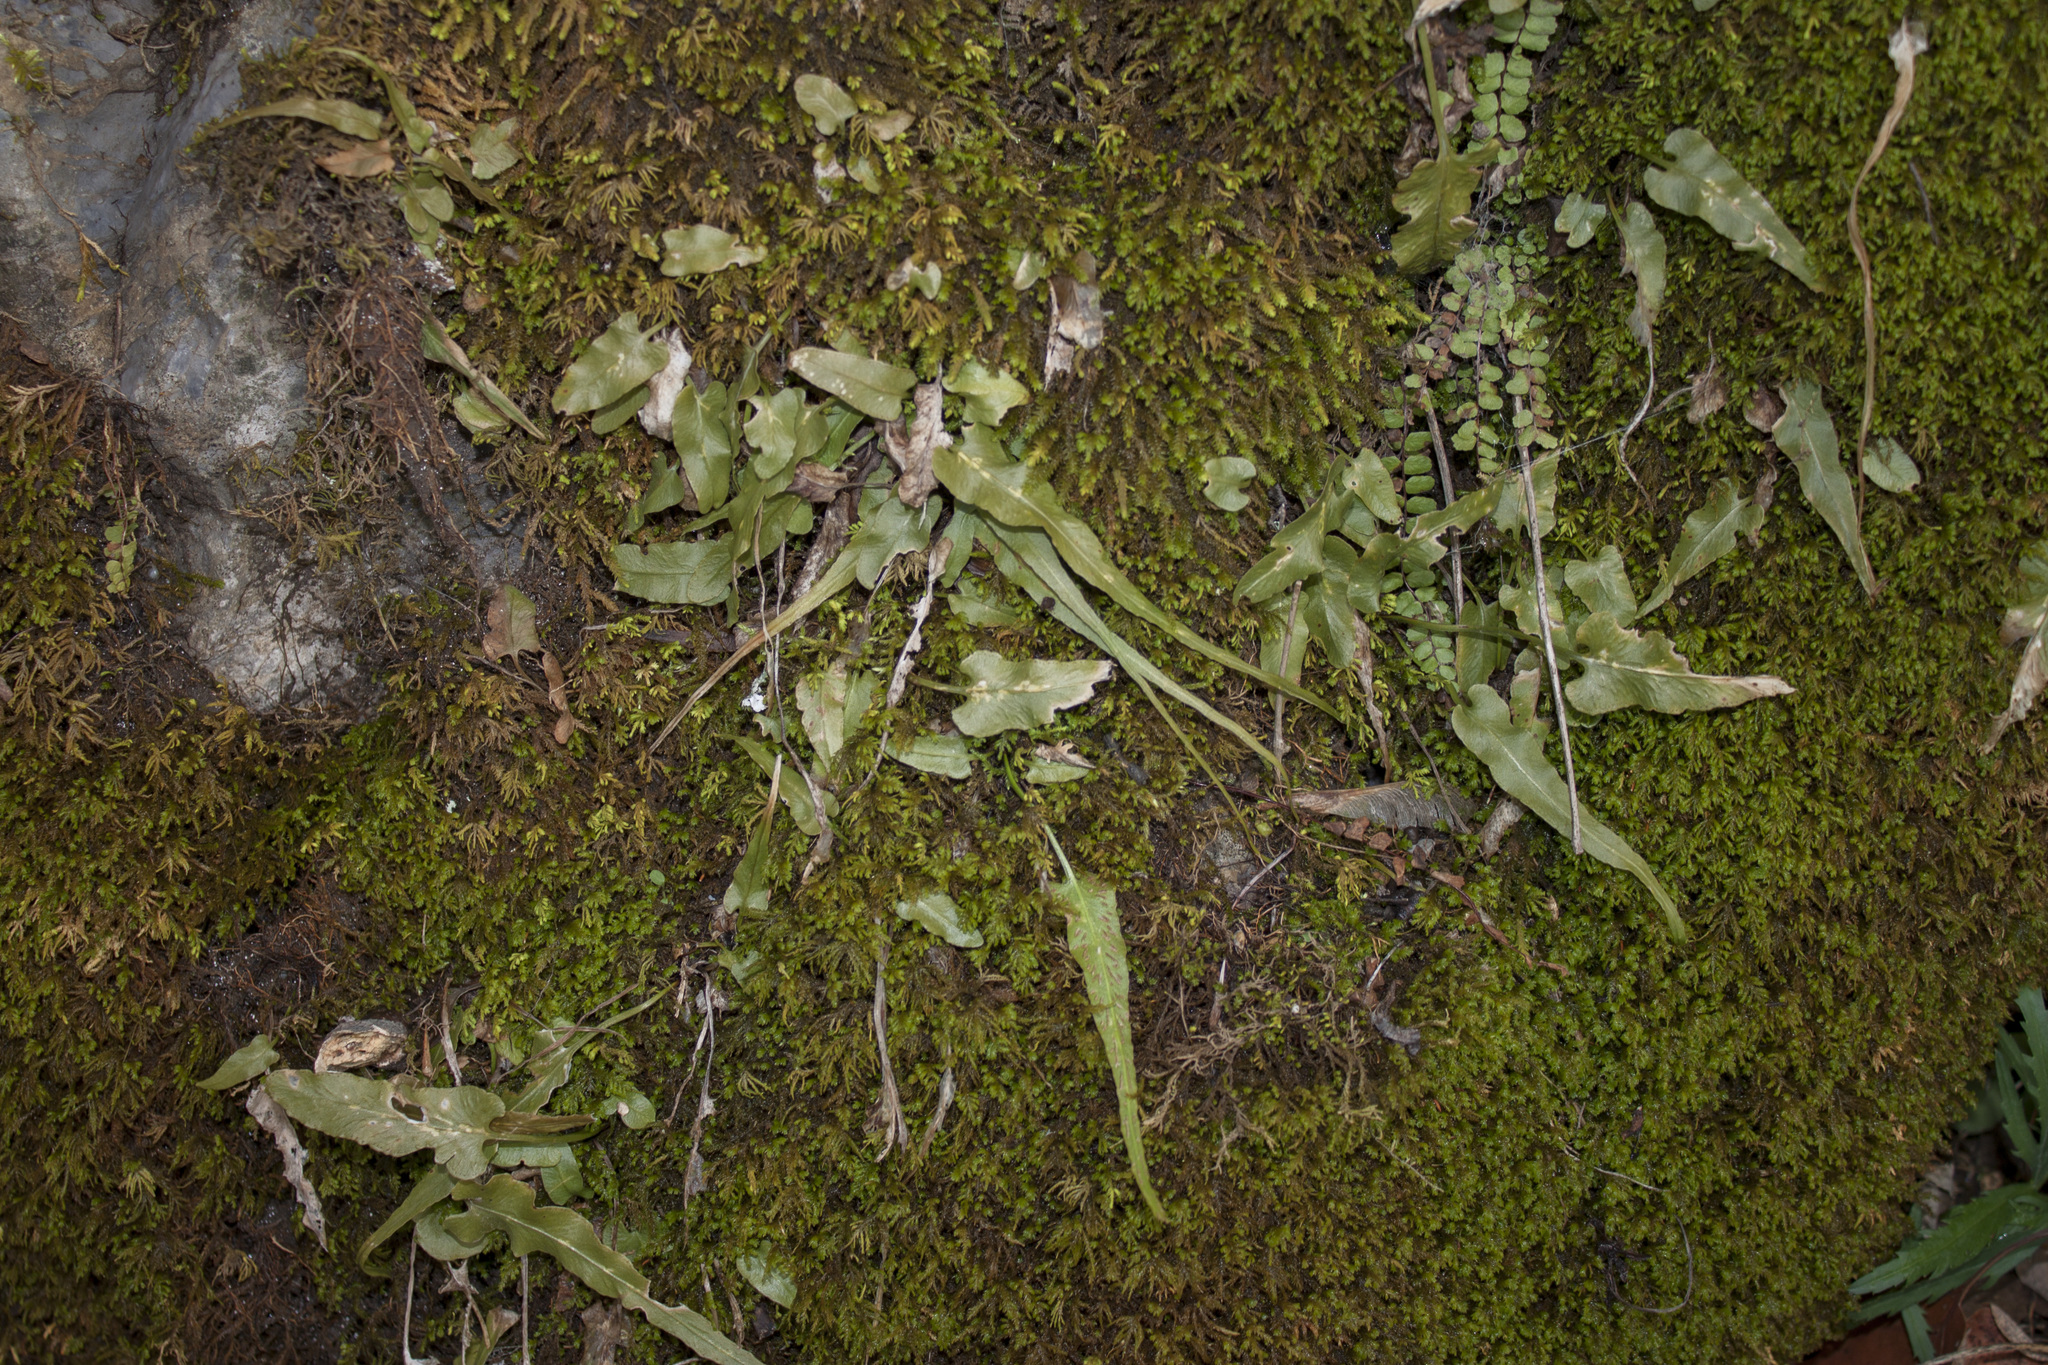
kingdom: Plantae
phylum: Tracheophyta
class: Polypodiopsida
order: Polypodiales
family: Aspleniaceae
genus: Asplenium
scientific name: Asplenium rhizophyllum
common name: Walking fern
